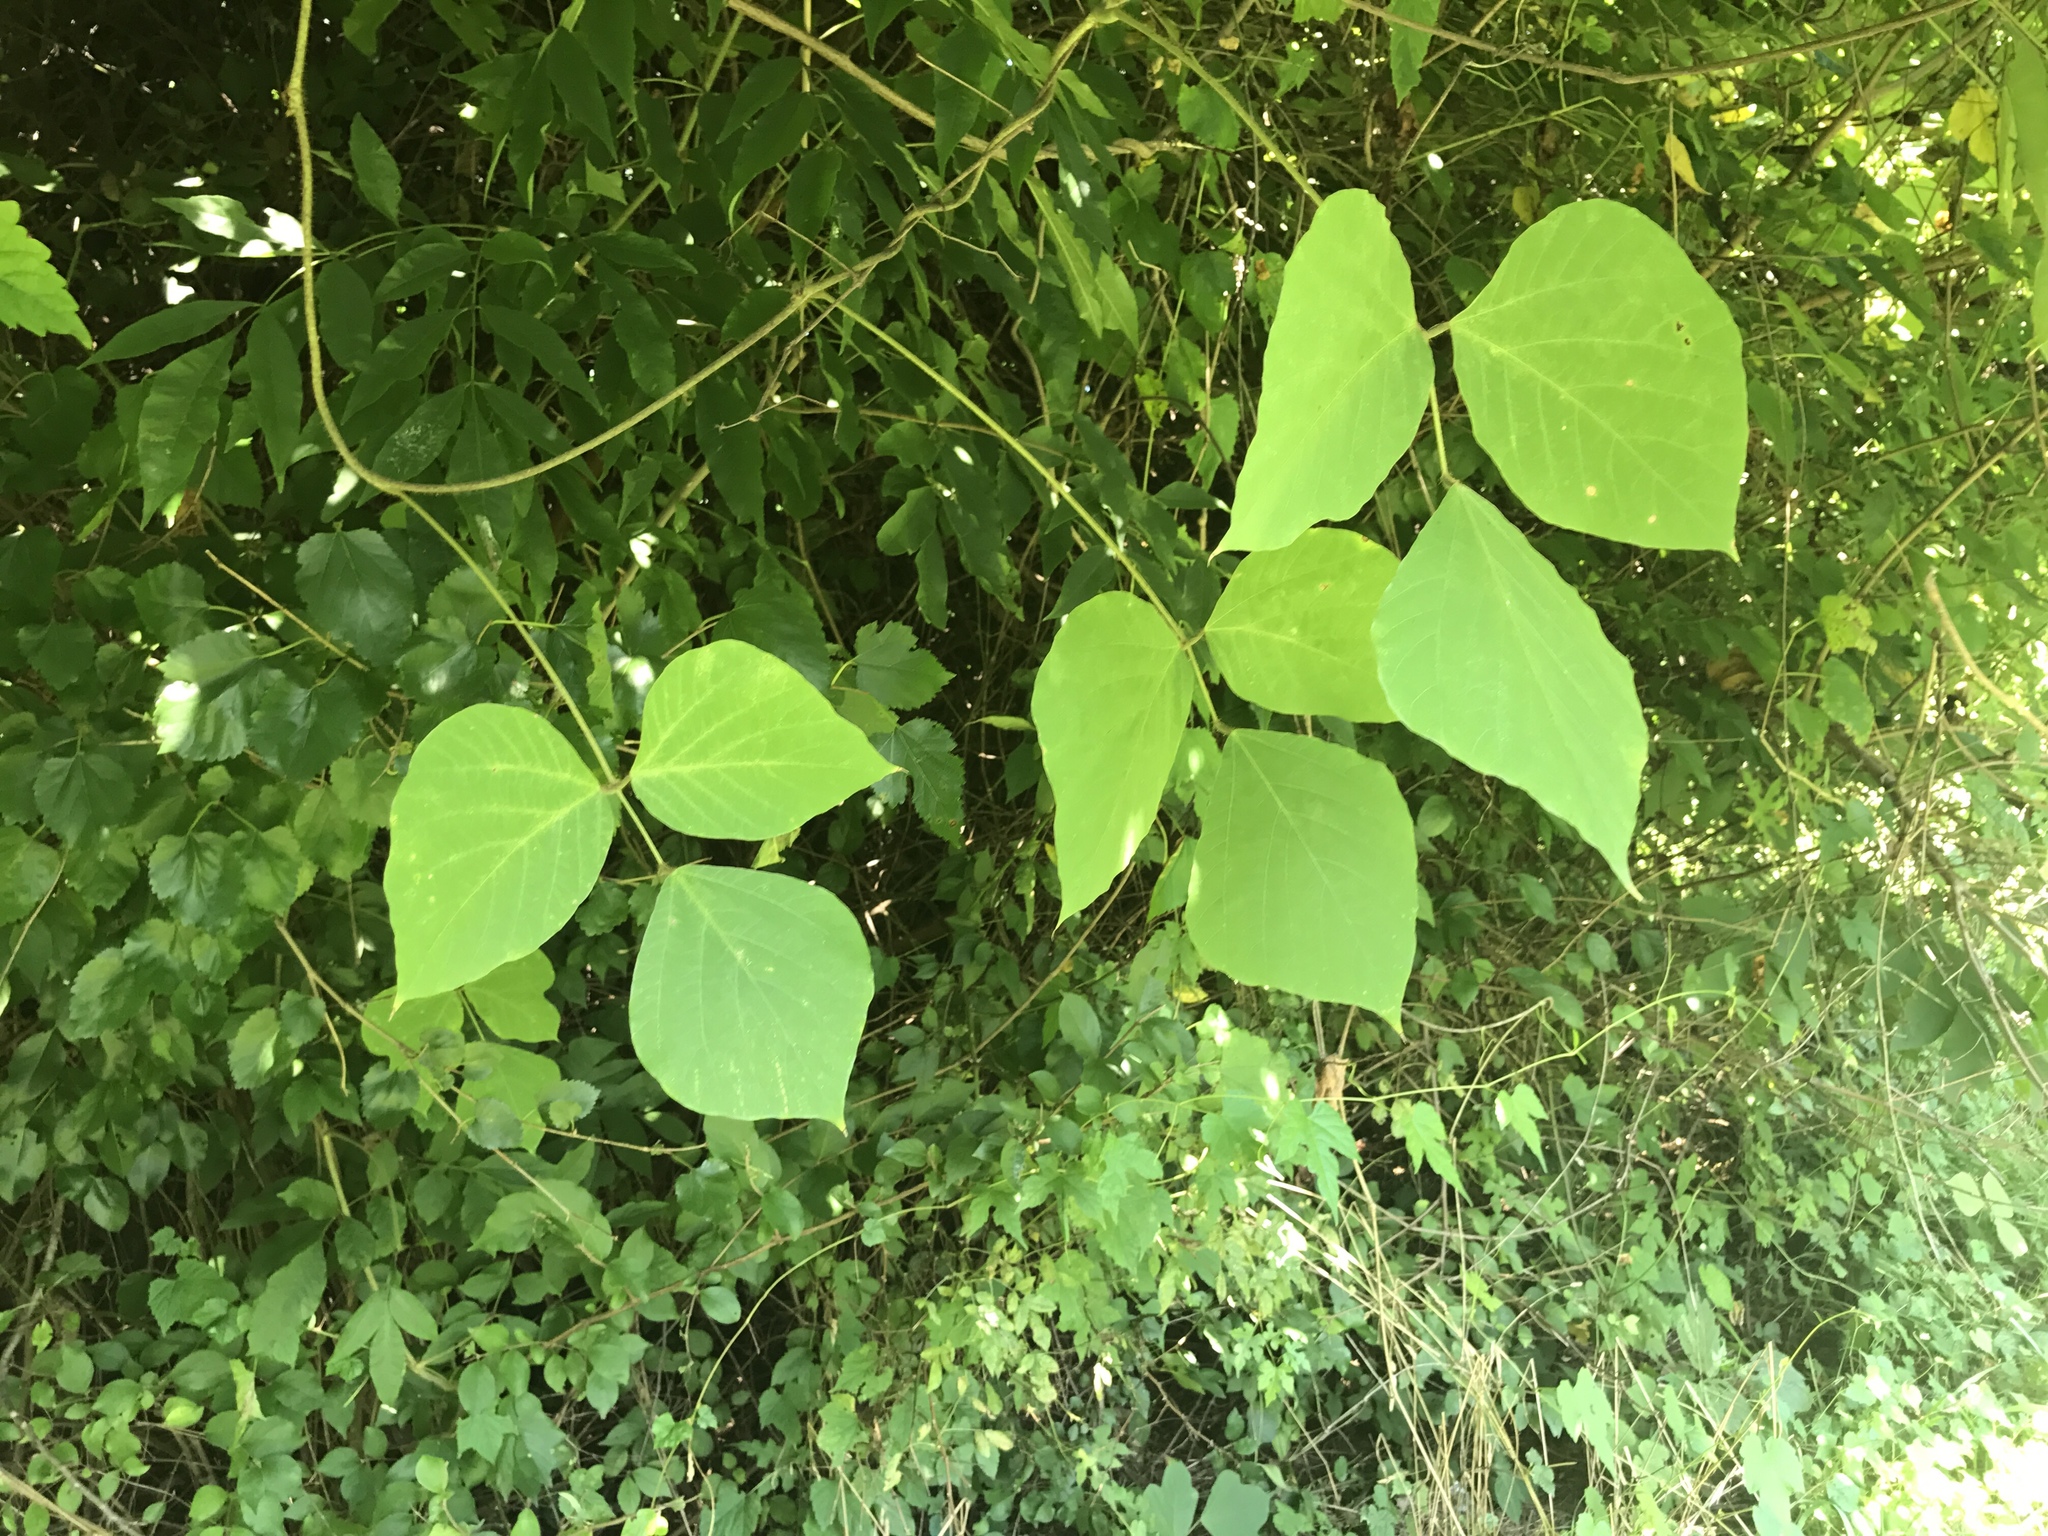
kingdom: Plantae
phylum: Tracheophyta
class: Magnoliopsida
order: Fabales
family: Fabaceae
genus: Pueraria
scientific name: Pueraria montana
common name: Kudzu
